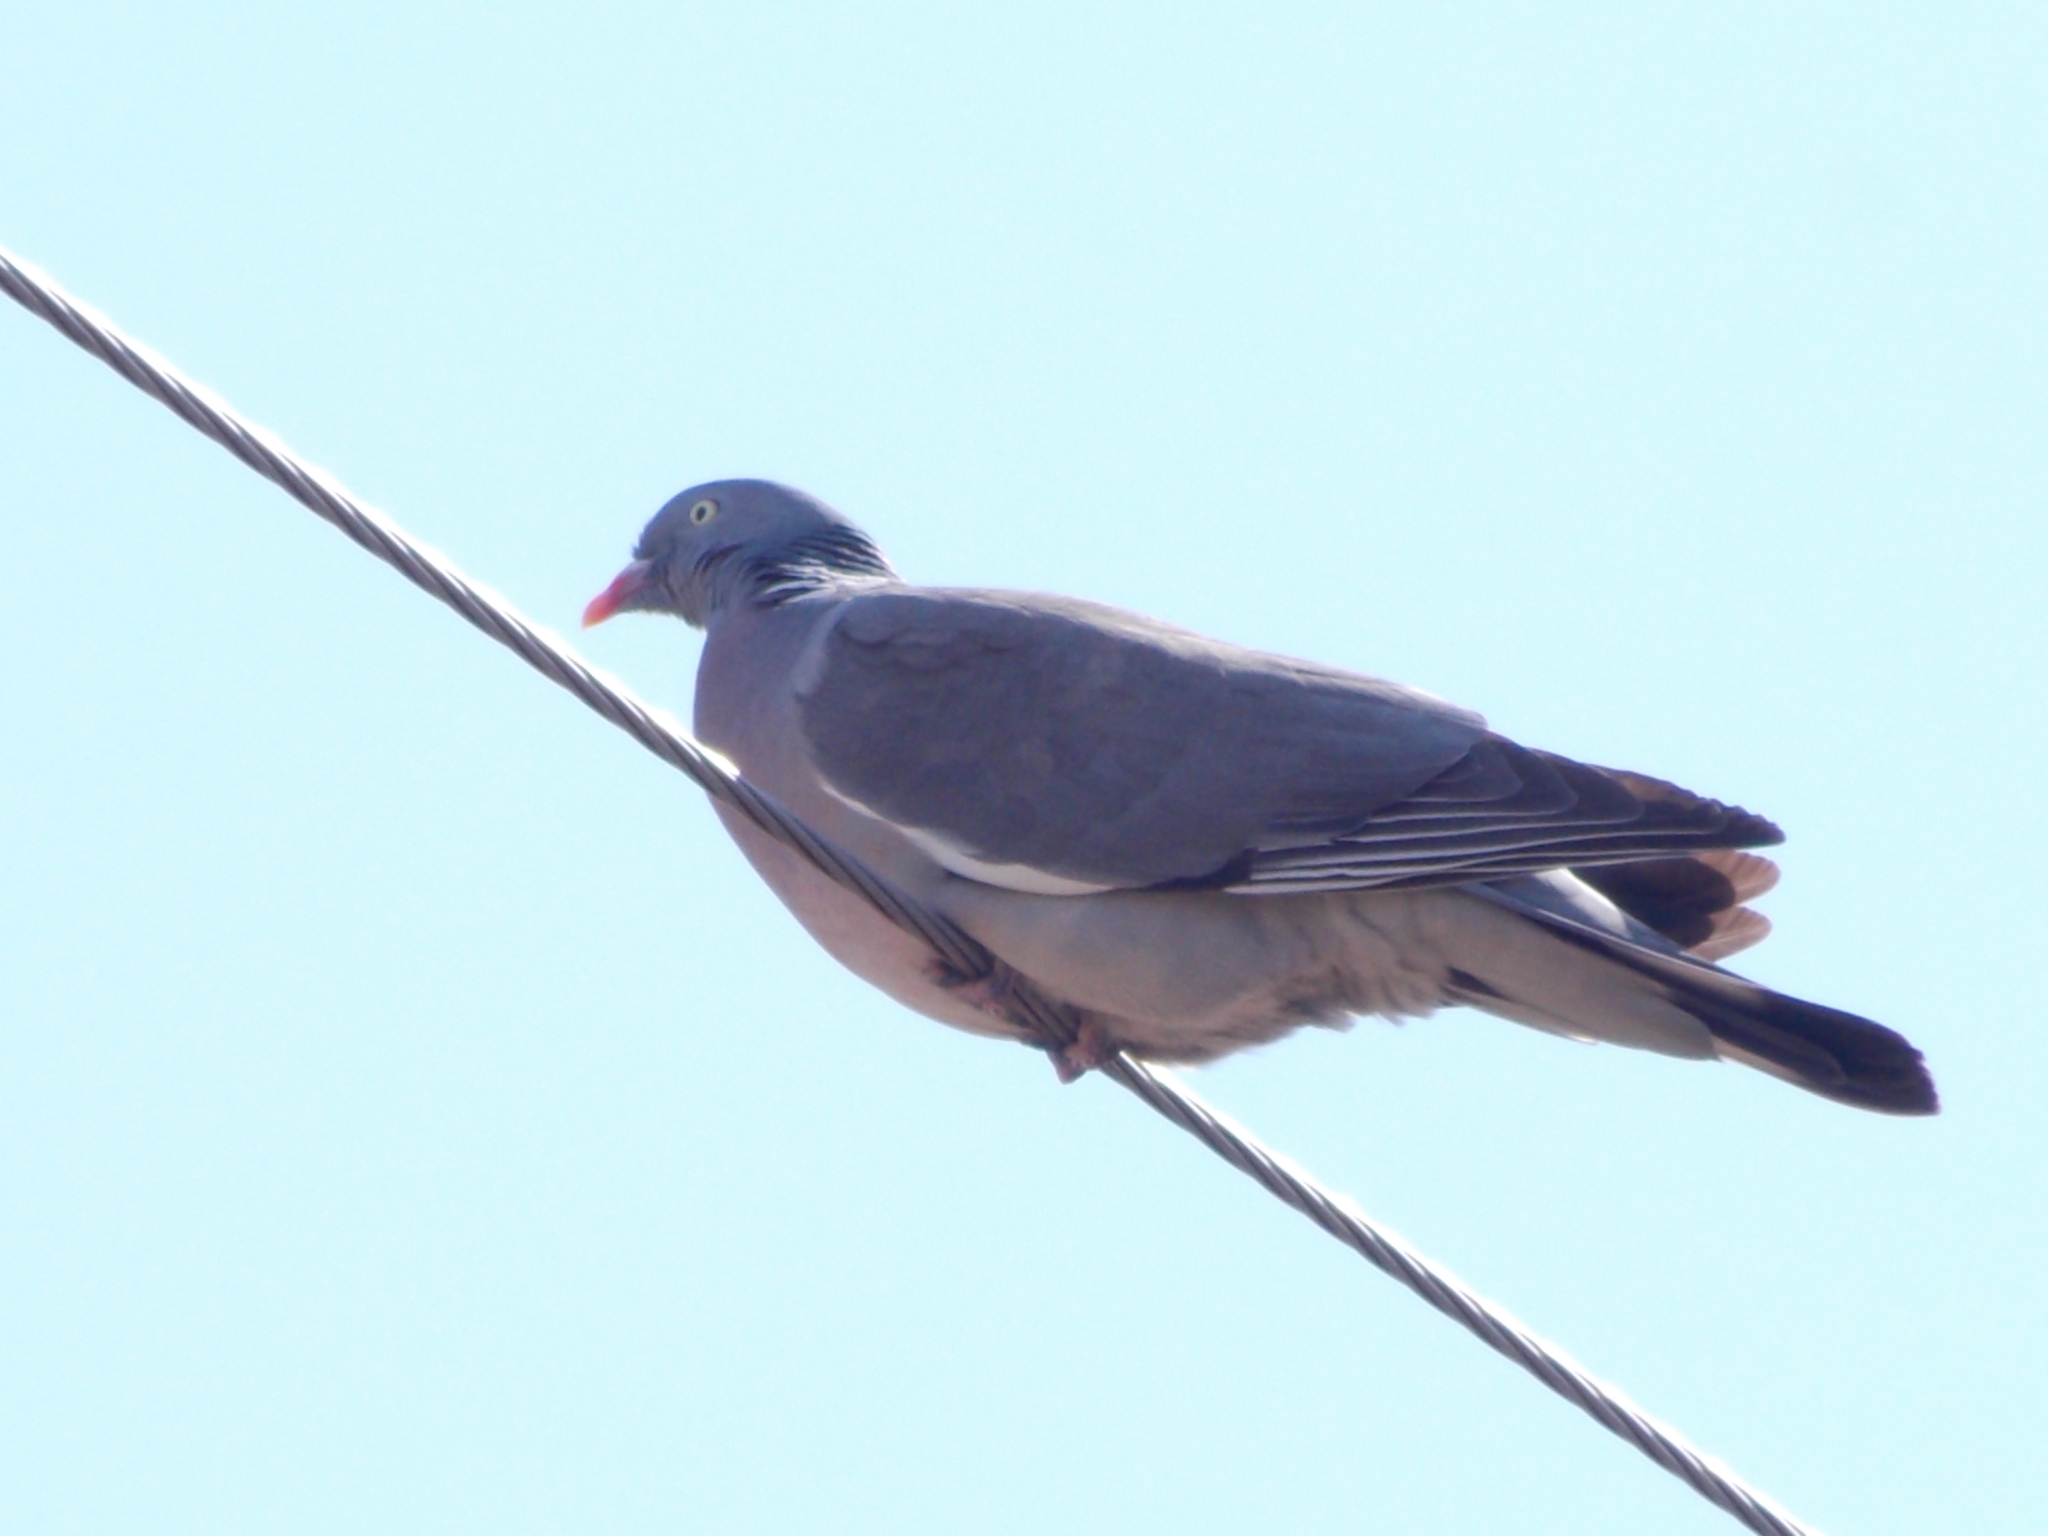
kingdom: Animalia
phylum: Chordata
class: Aves
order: Columbiformes
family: Columbidae
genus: Columba
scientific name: Columba palumbus
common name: Common wood pigeon
